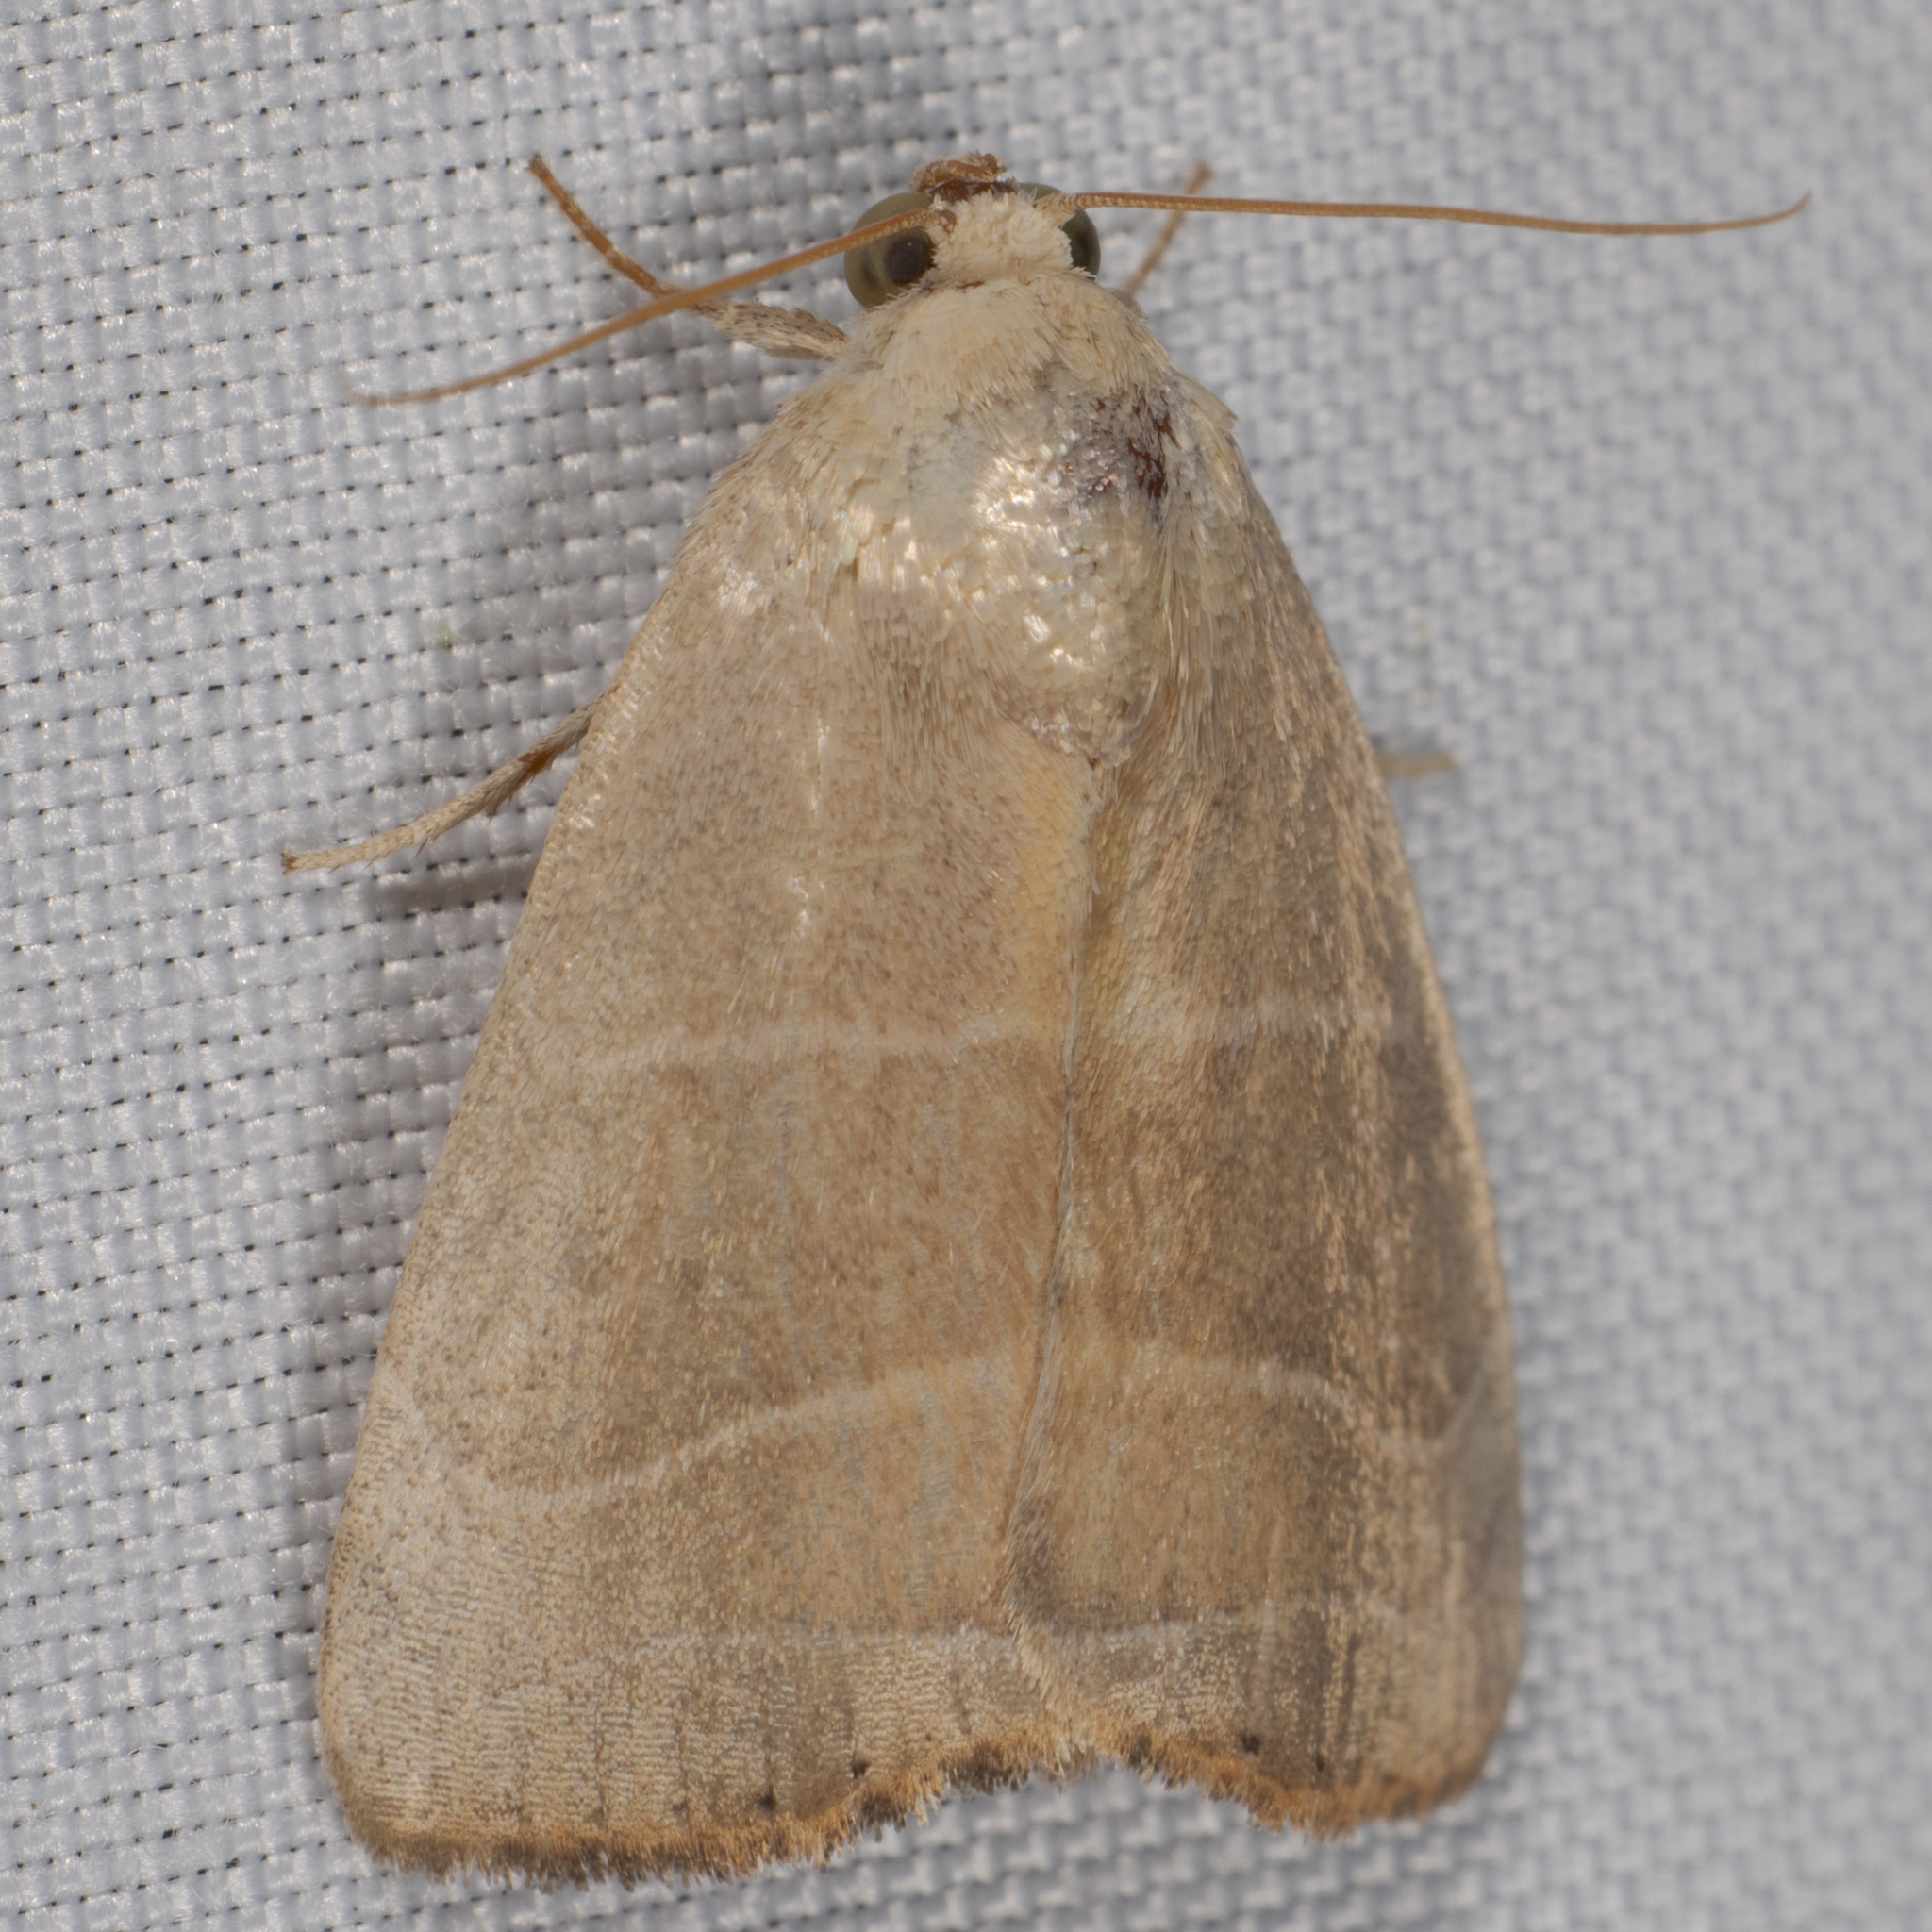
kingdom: Animalia
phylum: Arthropoda
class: Insecta
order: Lepidoptera
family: Noctuidae
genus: Bagisara
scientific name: Bagisara rectifascia
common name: Straight lined mallow moth
